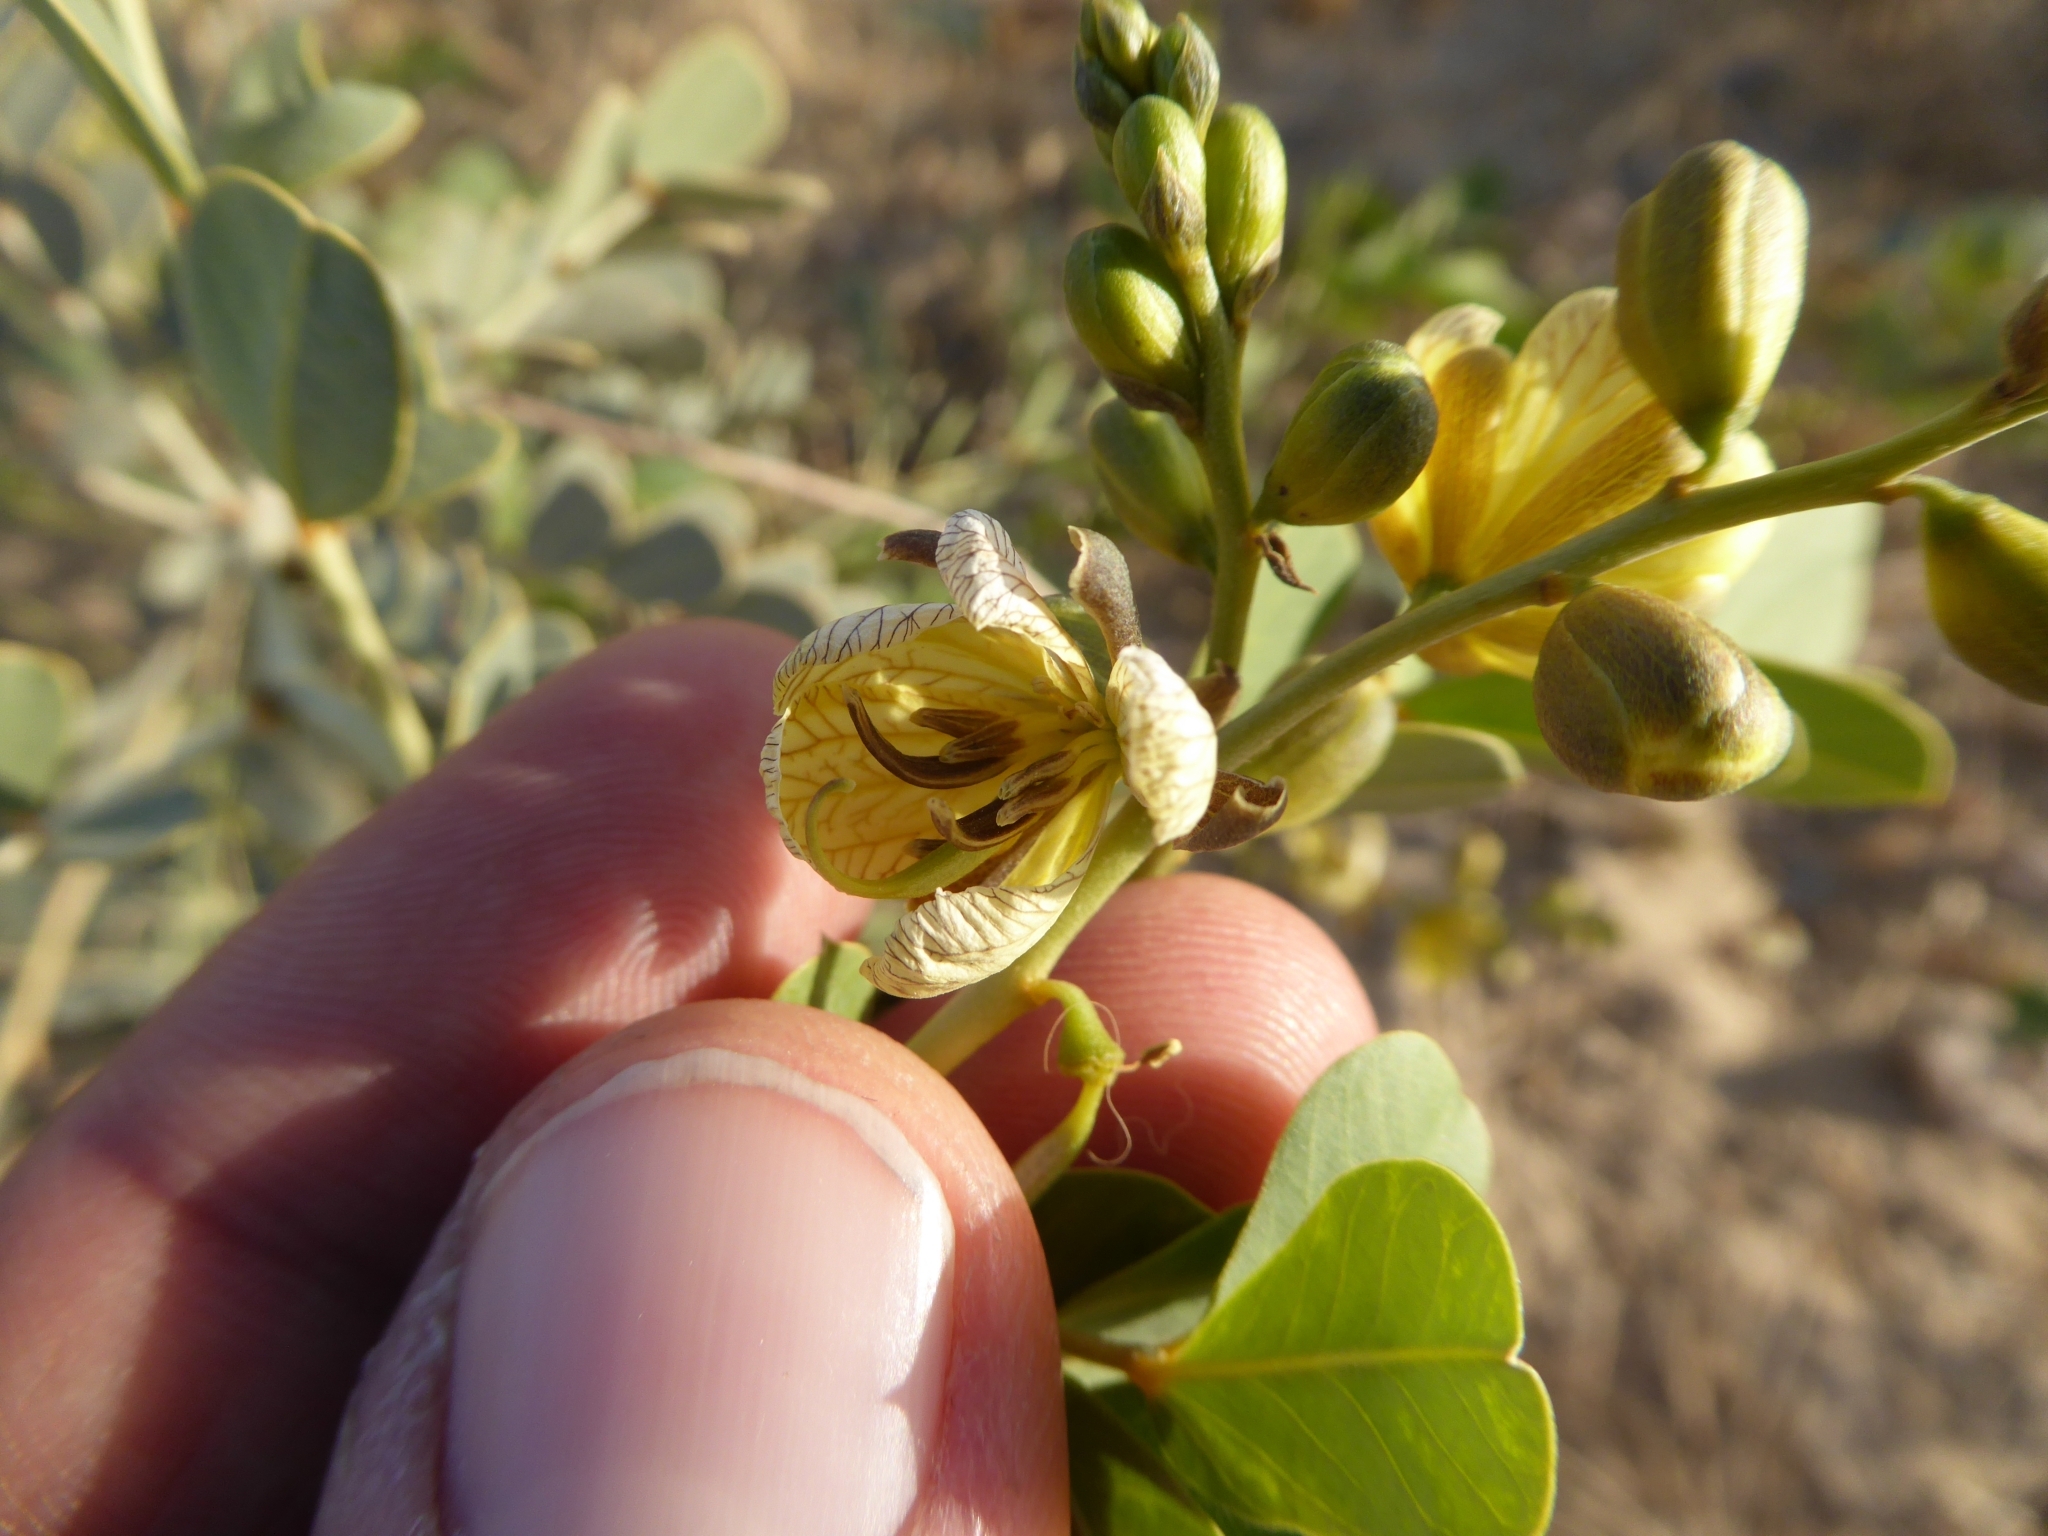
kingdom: Plantae
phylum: Tracheophyta
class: Magnoliopsida
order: Fabales
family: Fabaceae
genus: Senna
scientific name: Senna italica
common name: Port royal senna
